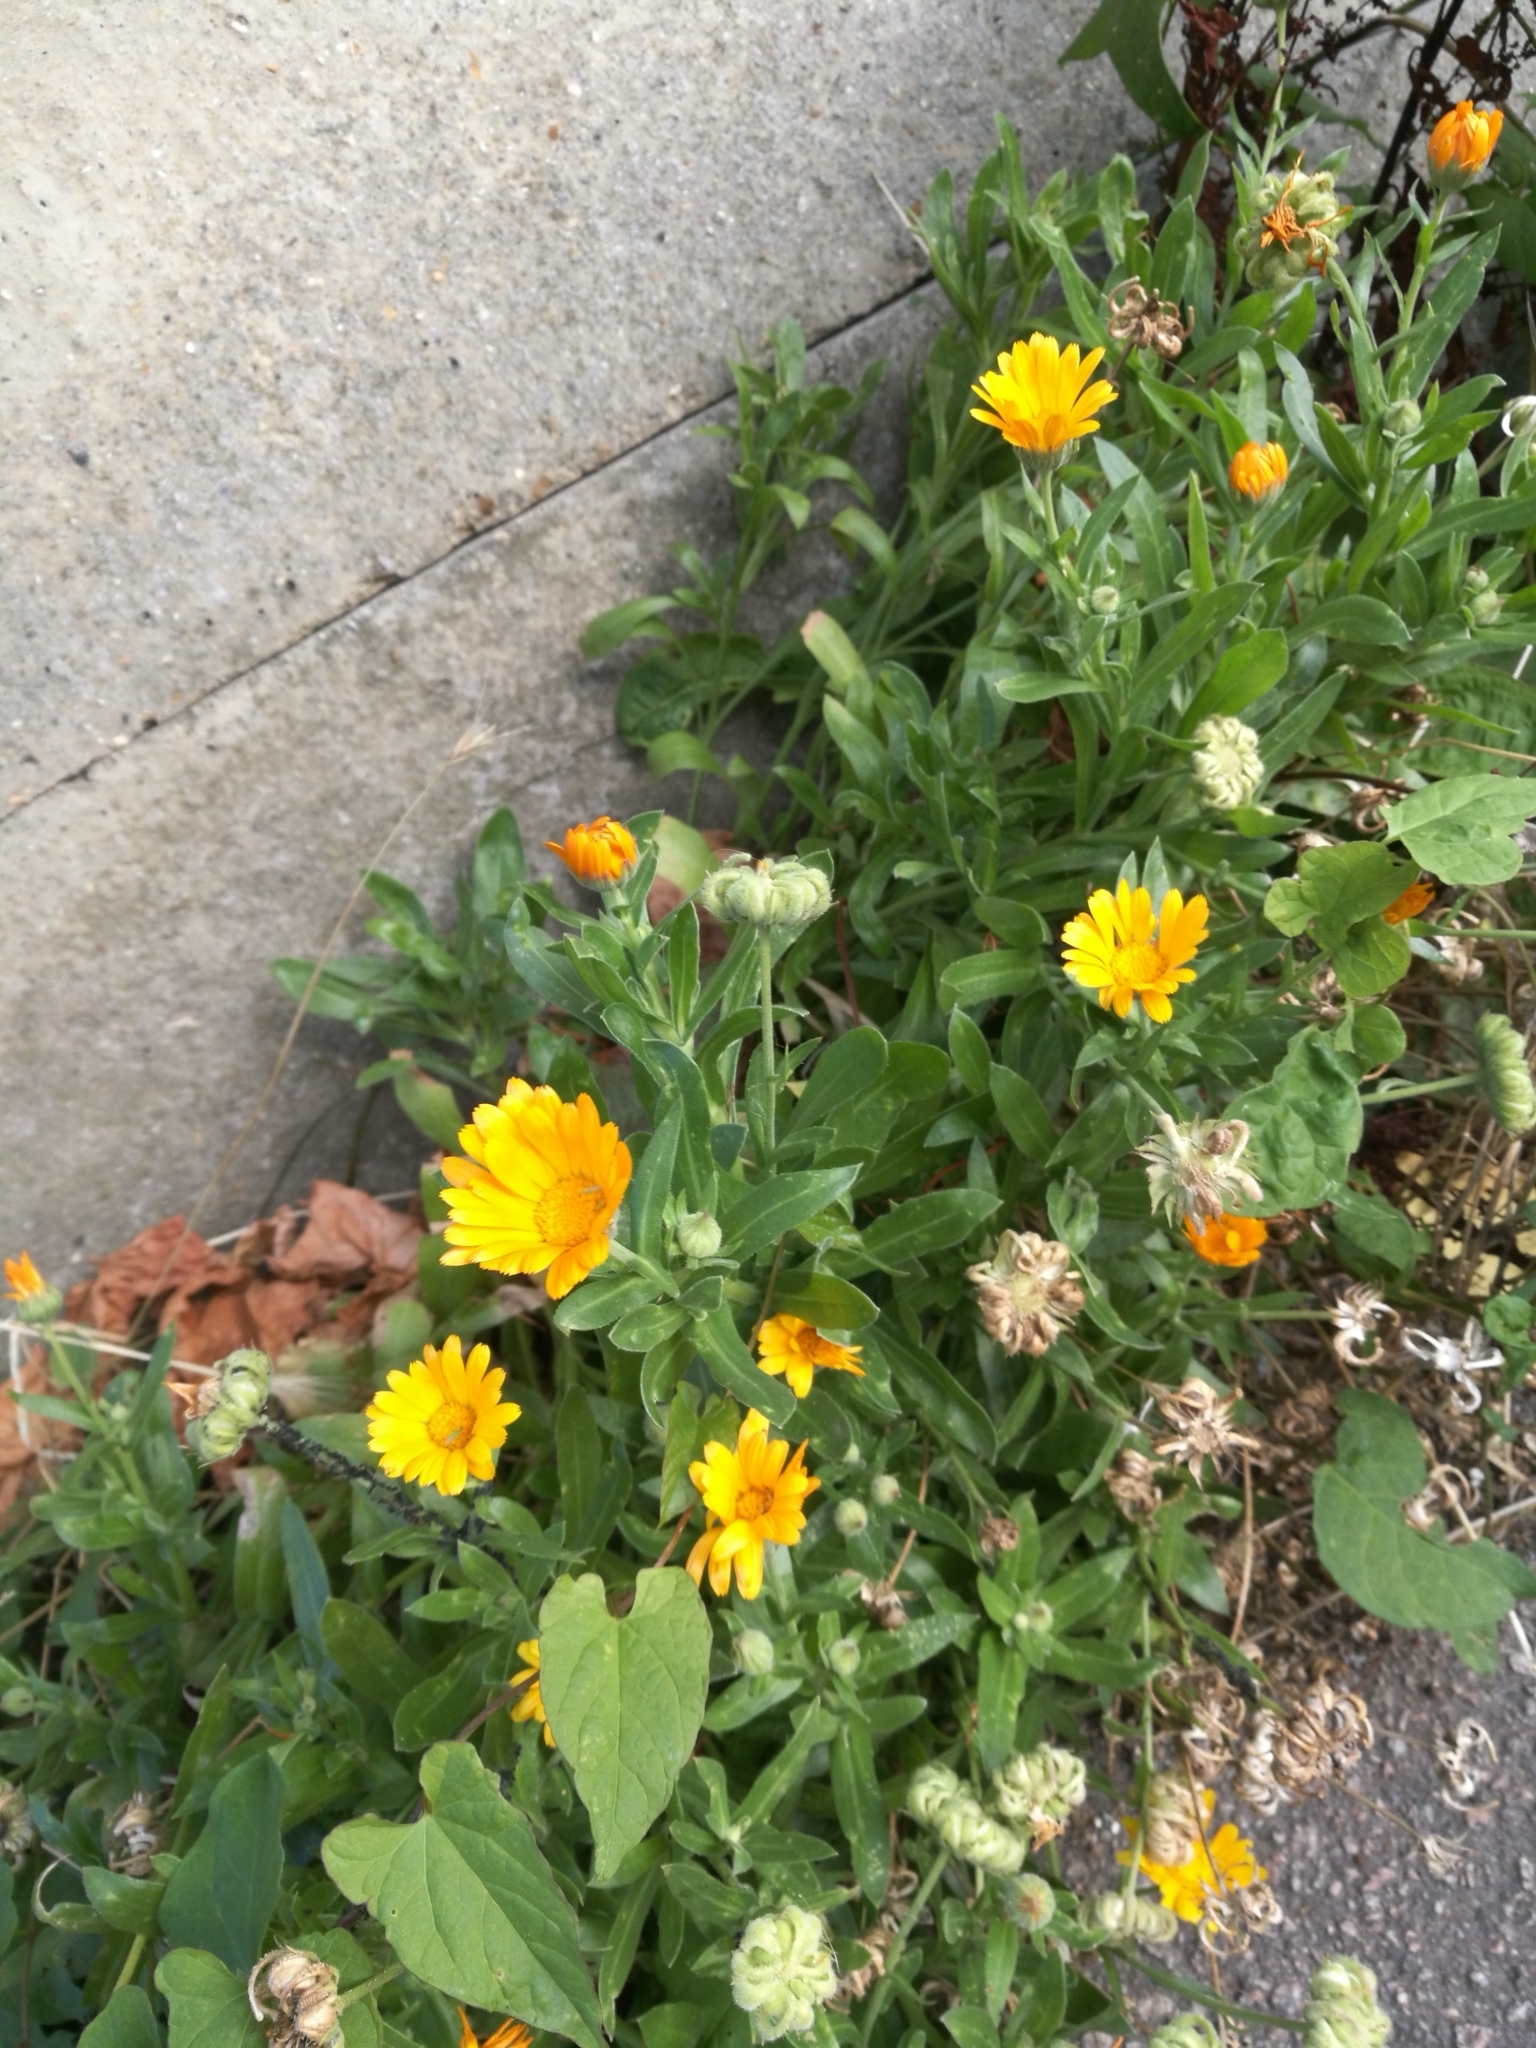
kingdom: Plantae
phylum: Tracheophyta
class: Magnoliopsida
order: Asterales
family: Asteraceae
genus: Calendula
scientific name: Calendula officinalis
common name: Pot marigold
